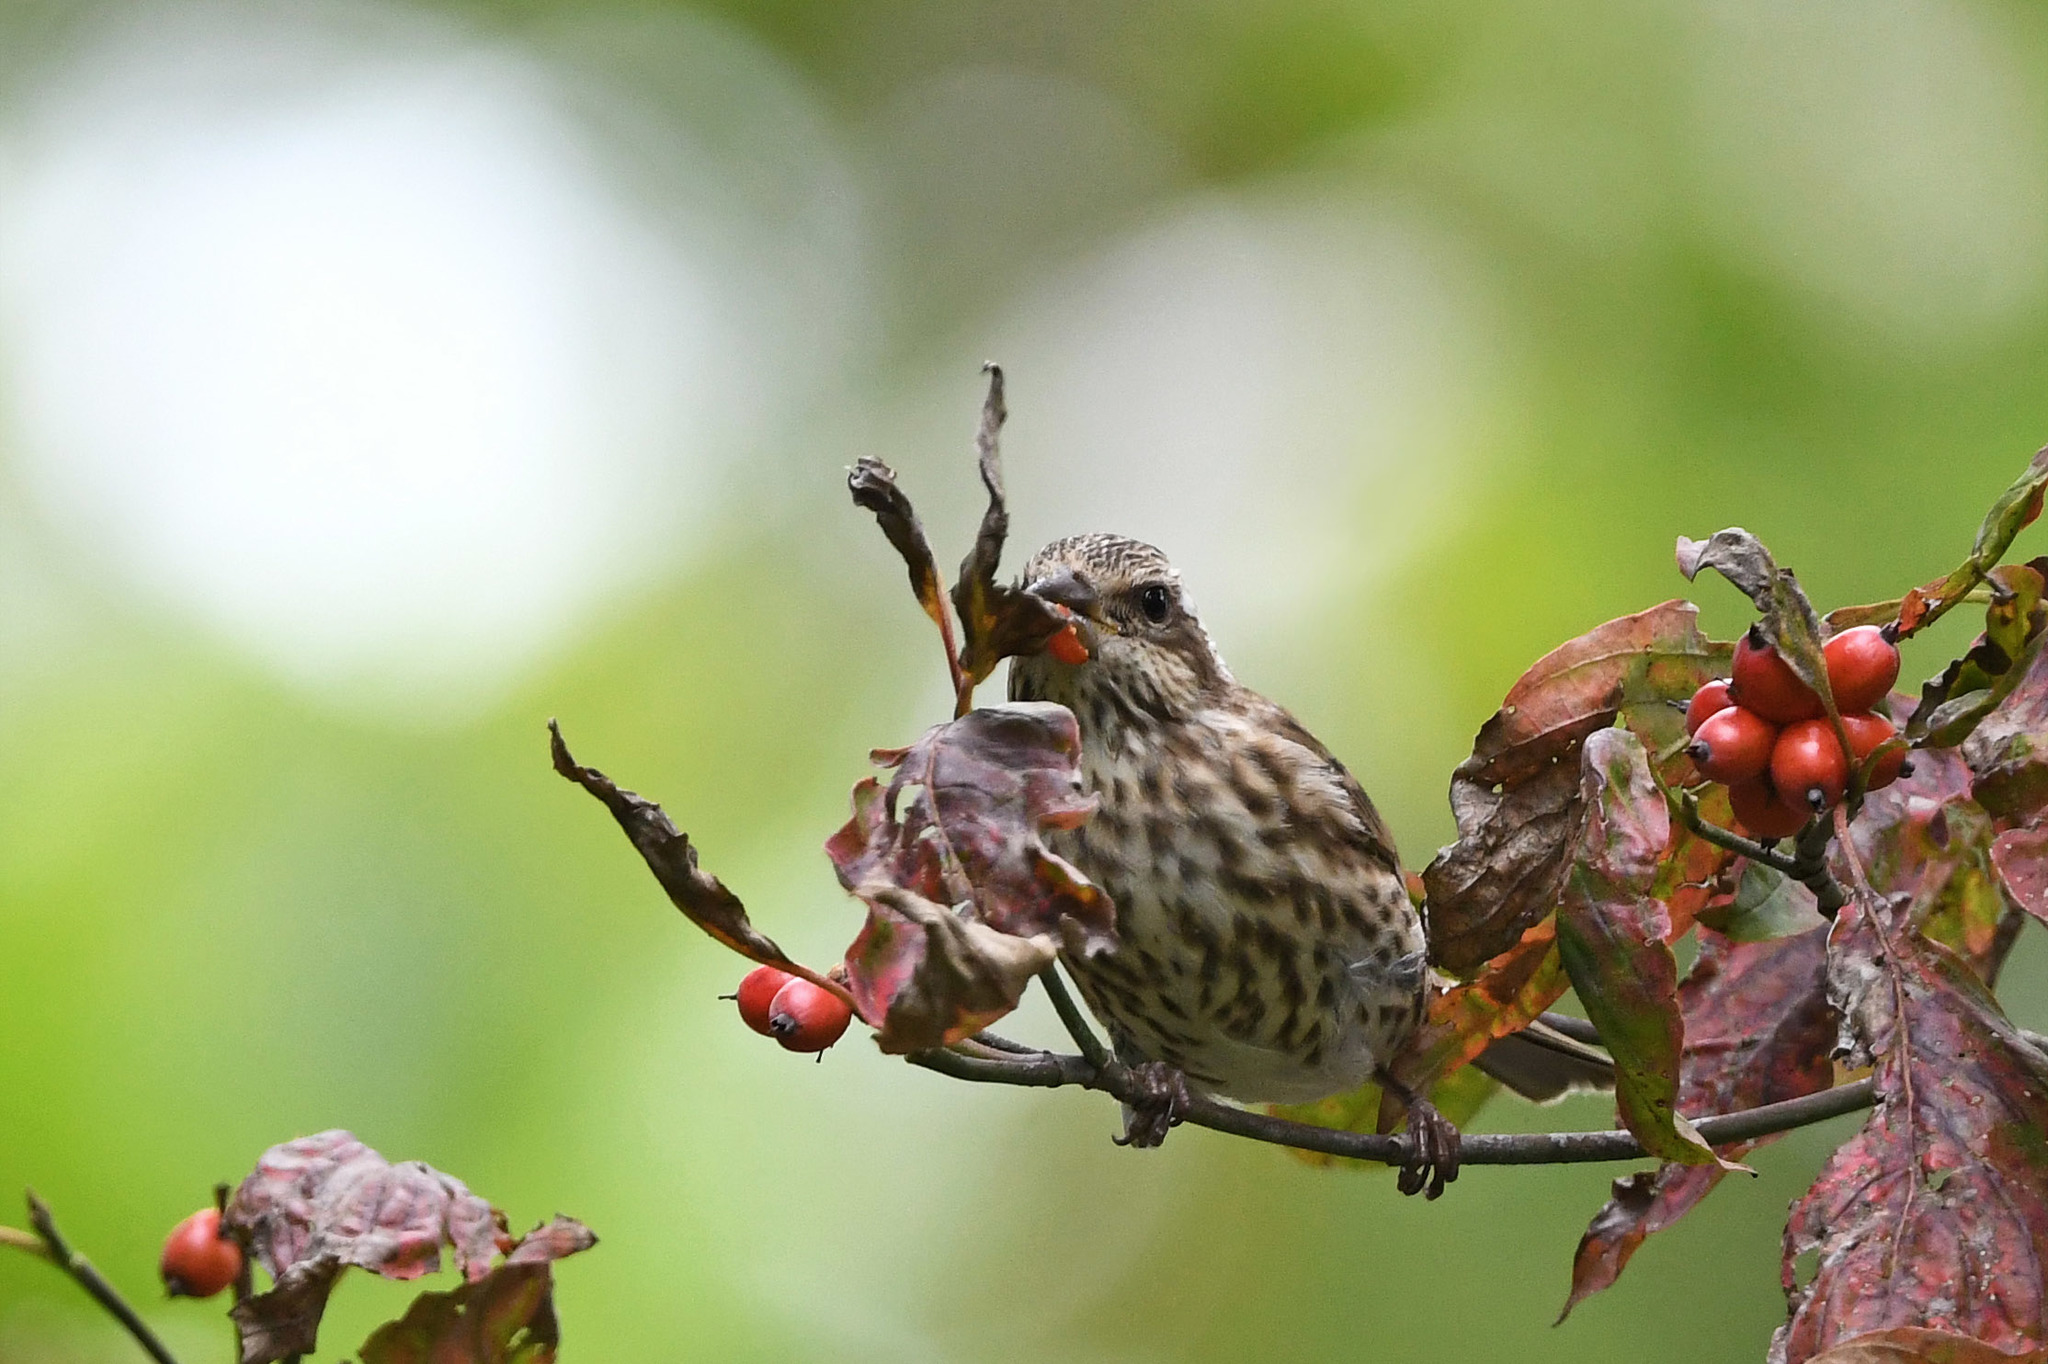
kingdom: Animalia
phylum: Chordata
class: Aves
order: Passeriformes
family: Fringillidae
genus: Haemorhous
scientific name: Haemorhous purpureus
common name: Purple finch
